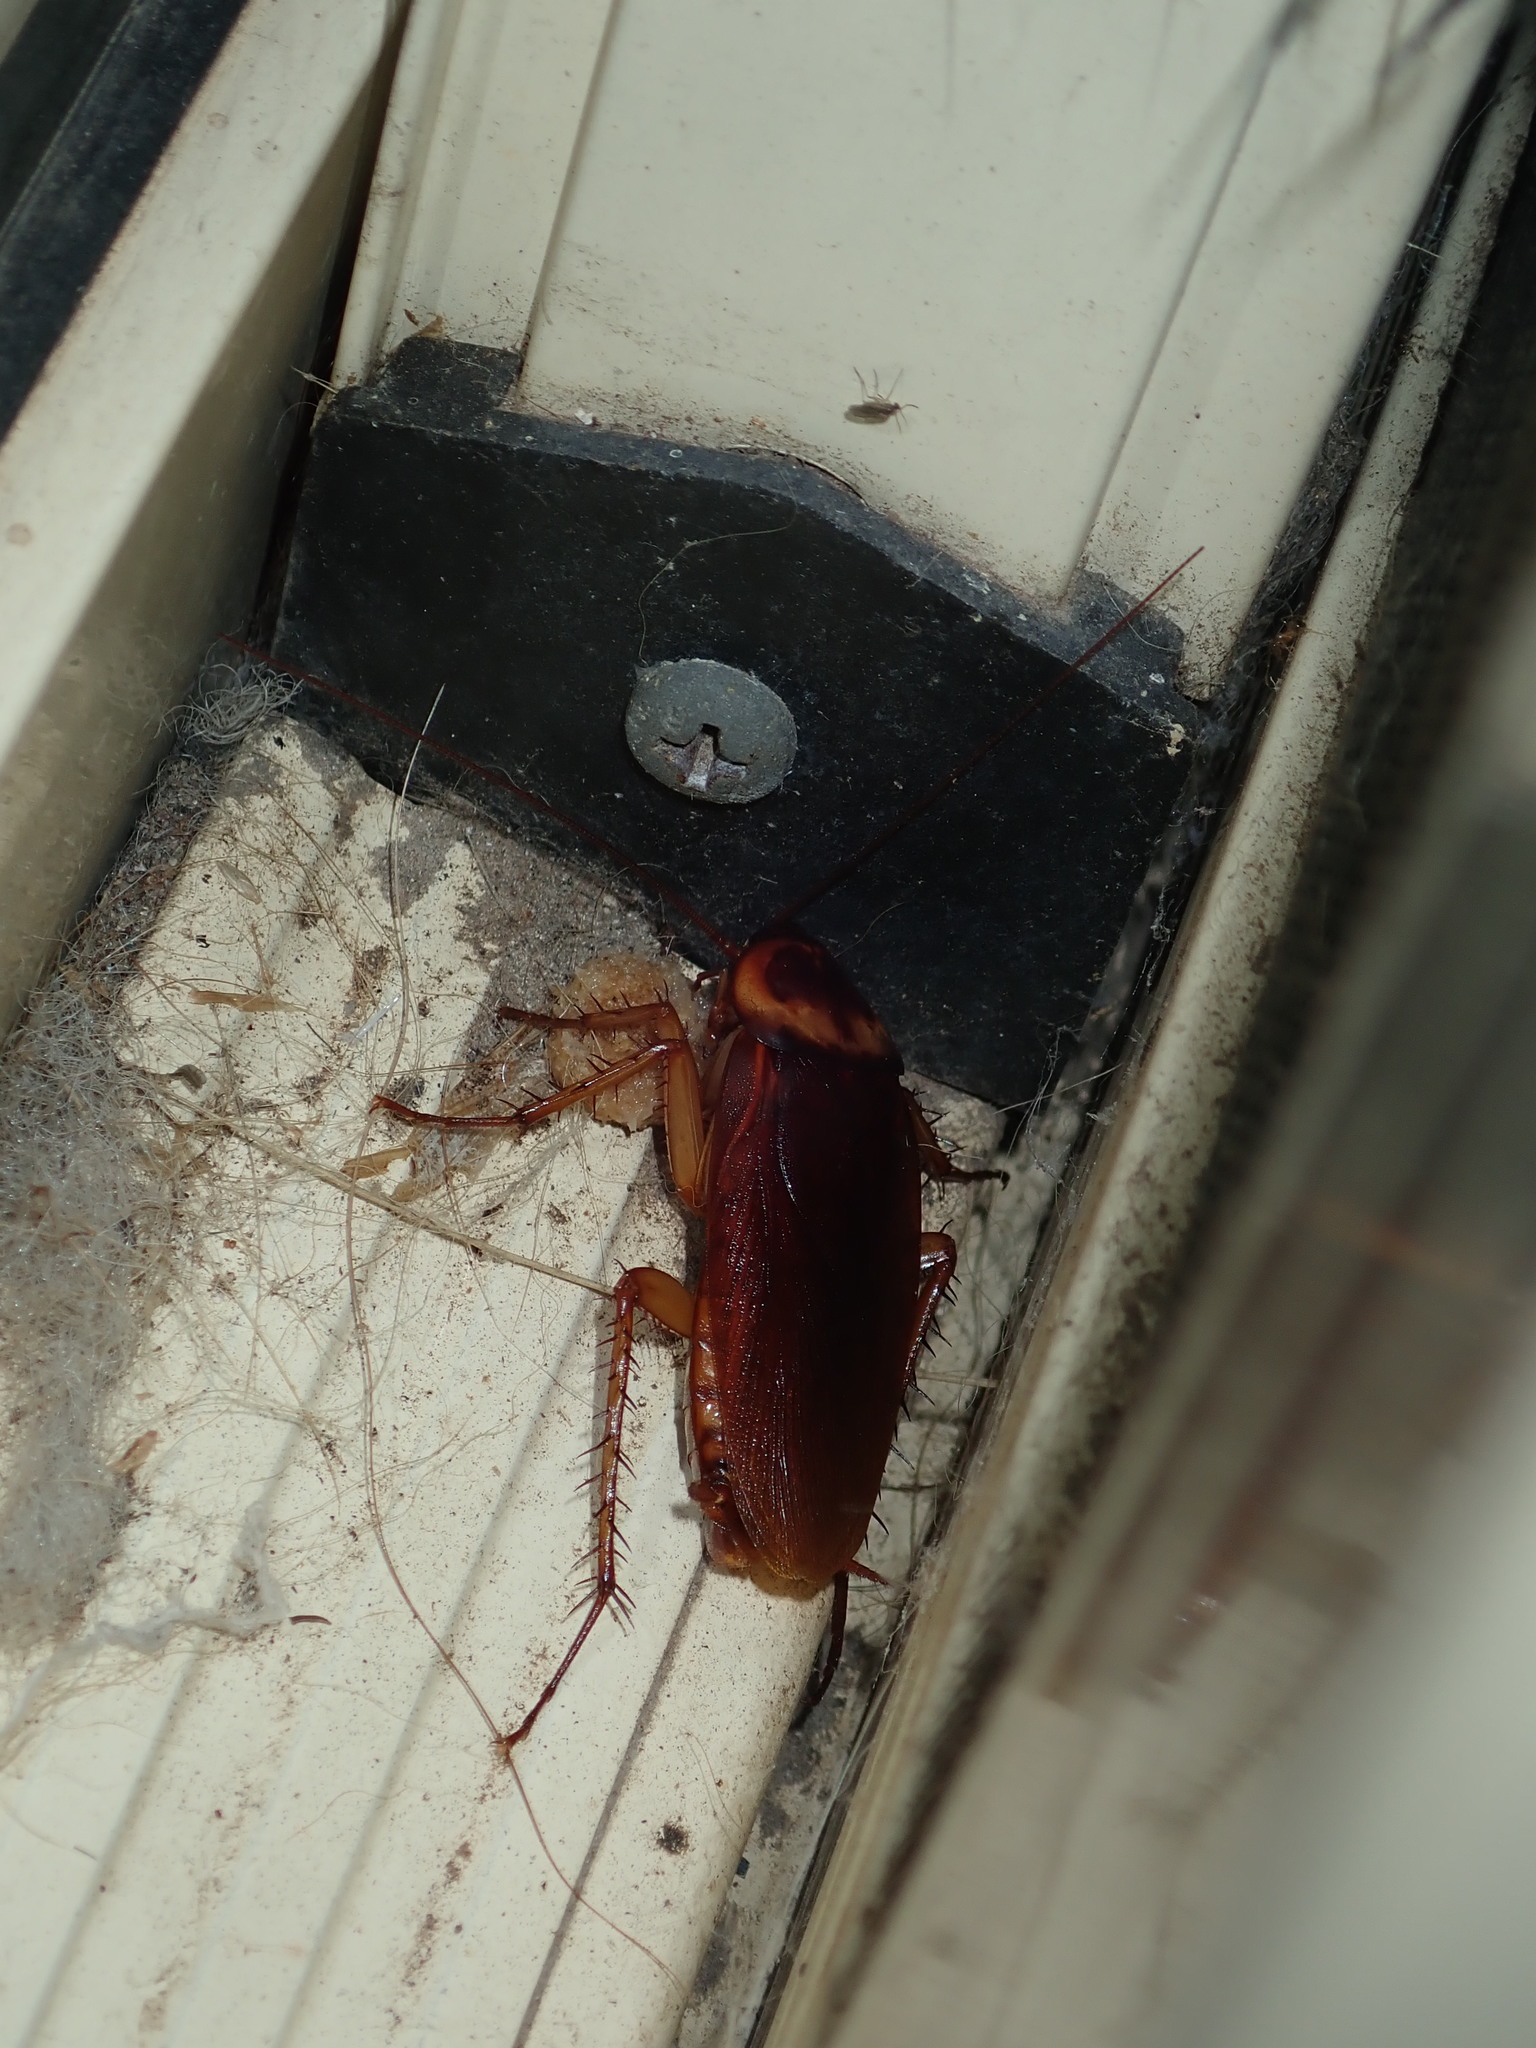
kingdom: Animalia
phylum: Arthropoda
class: Insecta
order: Blattodea
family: Blattidae
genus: Periplaneta
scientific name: Periplaneta americana
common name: American cockroach
